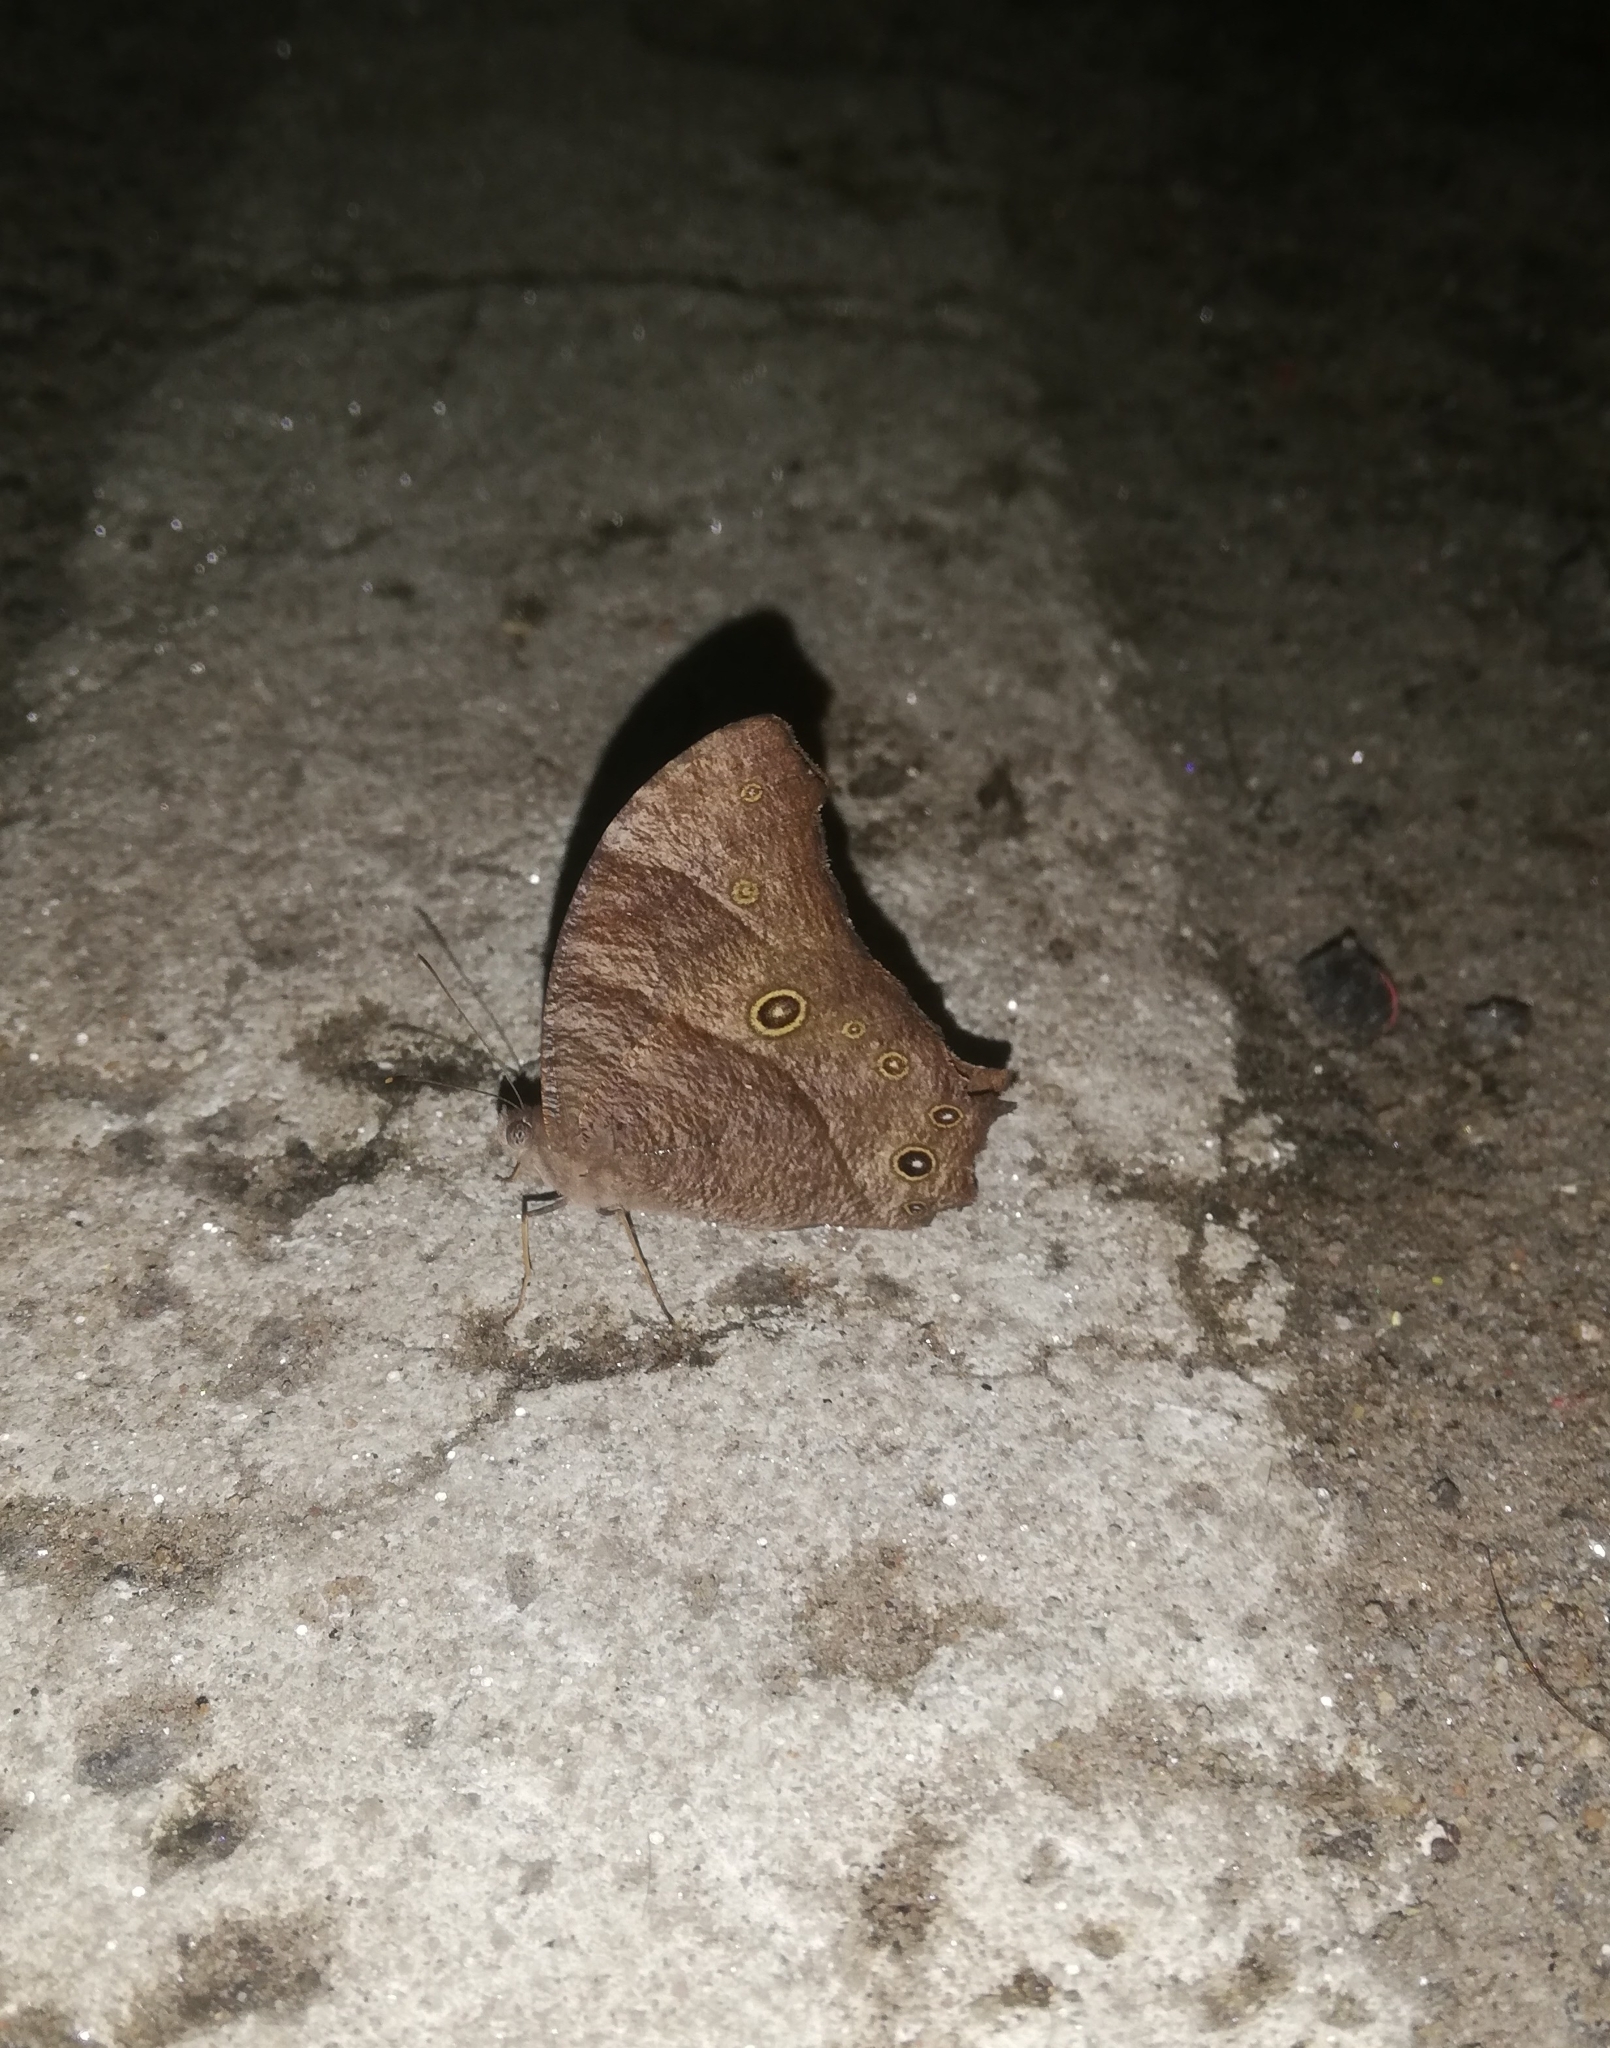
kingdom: Animalia
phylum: Arthropoda
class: Insecta
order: Lepidoptera
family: Nymphalidae
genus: Melanitis
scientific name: Melanitis leda
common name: Twilight brown
